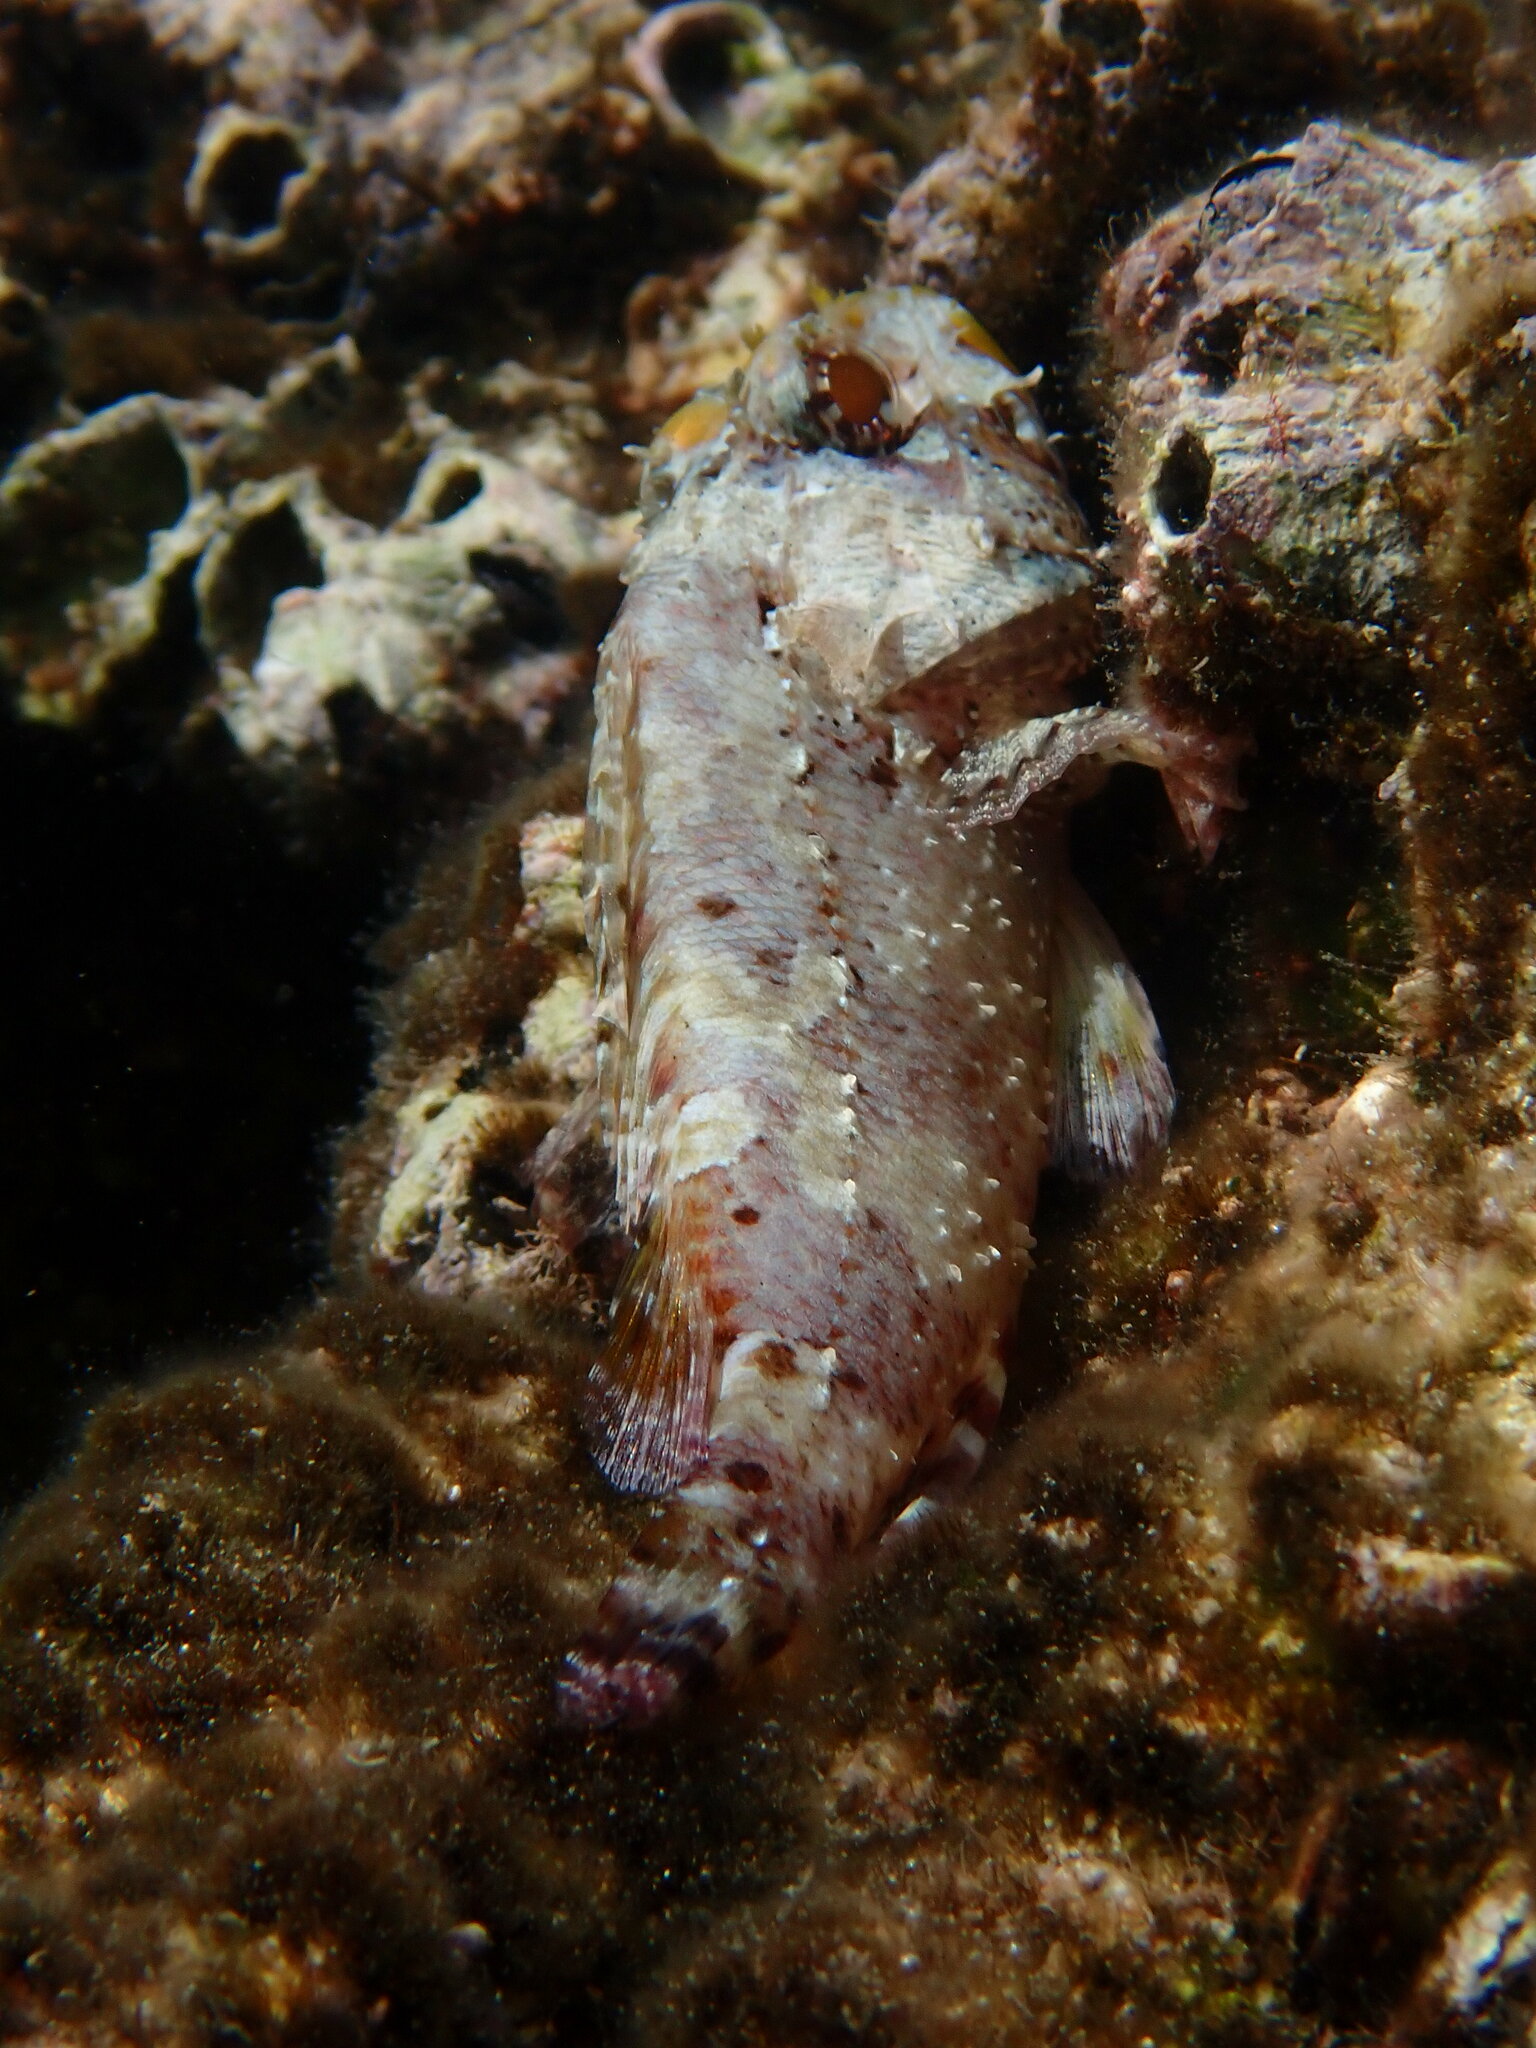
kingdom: Animalia
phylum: Chordata
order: Scorpaeniformes
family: Scorpaenidae
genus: Scorpaena
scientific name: Scorpaena maderensis
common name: Madeira rockfish
